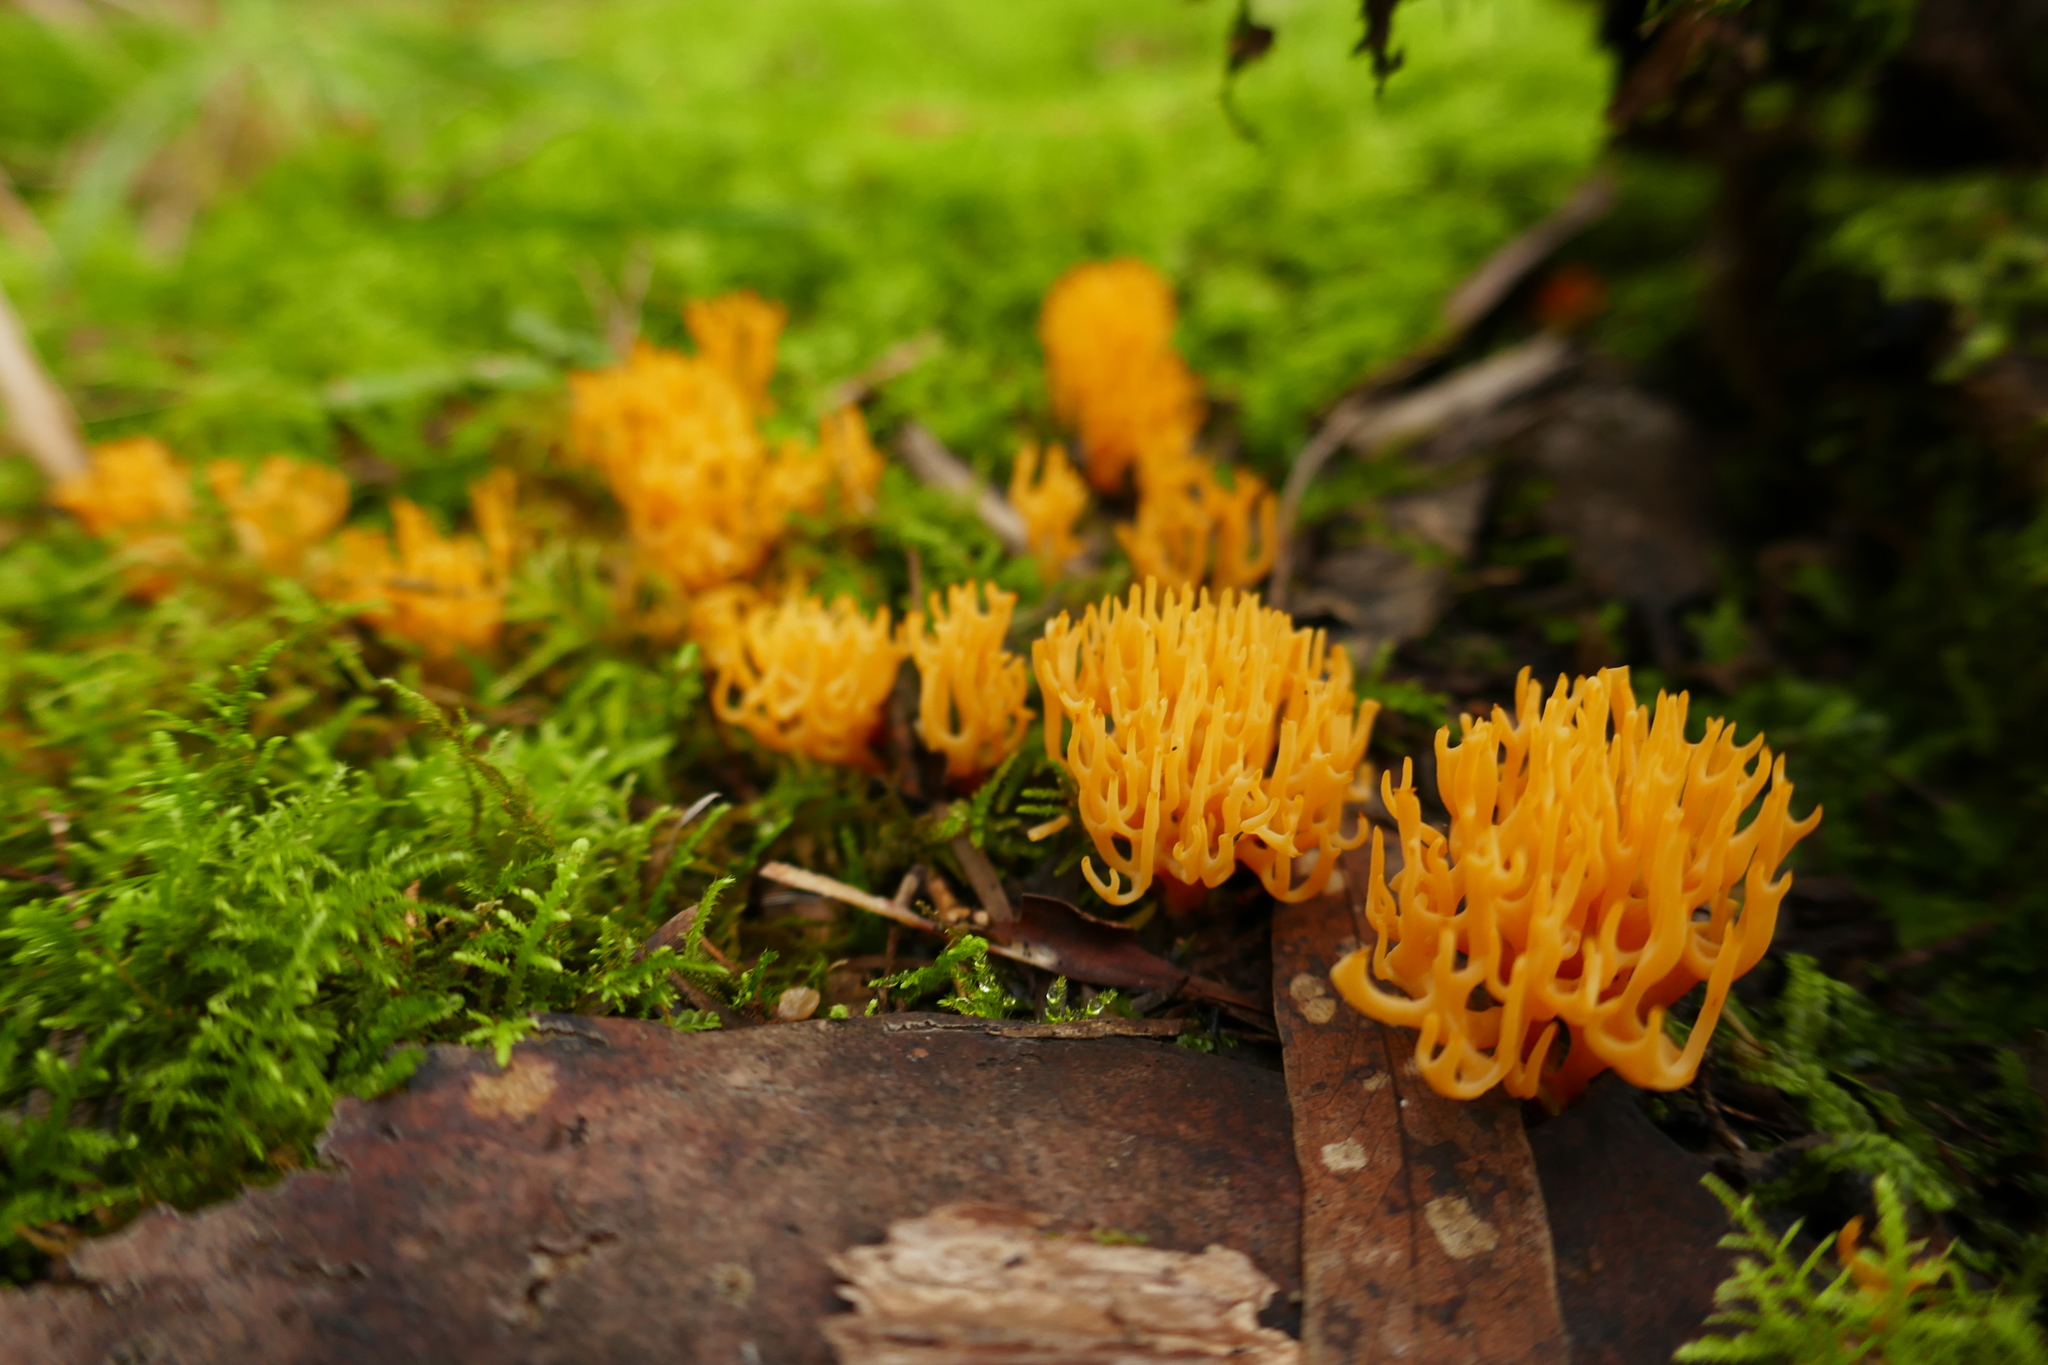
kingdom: Fungi
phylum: Basidiomycota
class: Agaricomycetes
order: Agaricales
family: Clavariaceae
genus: Ramariopsis
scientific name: Ramariopsis crocea
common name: Orange coral
